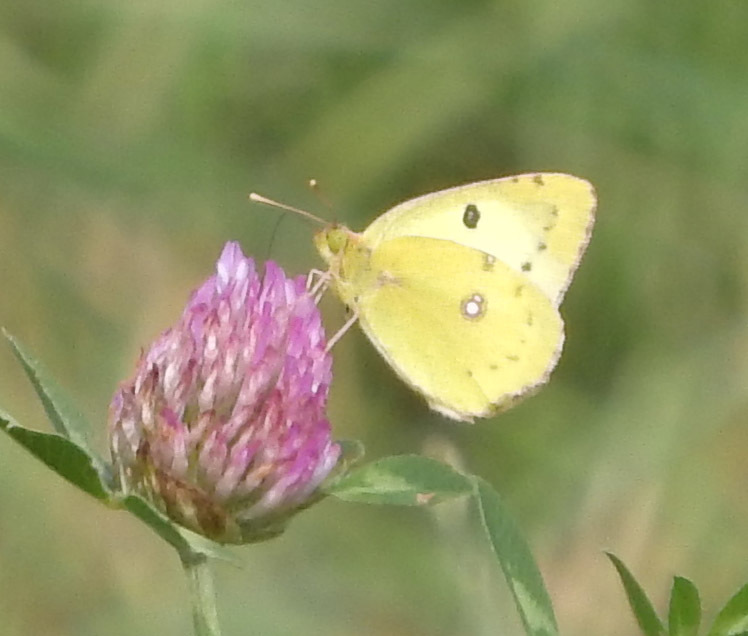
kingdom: Animalia
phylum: Arthropoda
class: Insecta
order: Lepidoptera
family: Pieridae
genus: Colias
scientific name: Colias hyale
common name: Pale clouded yellow
